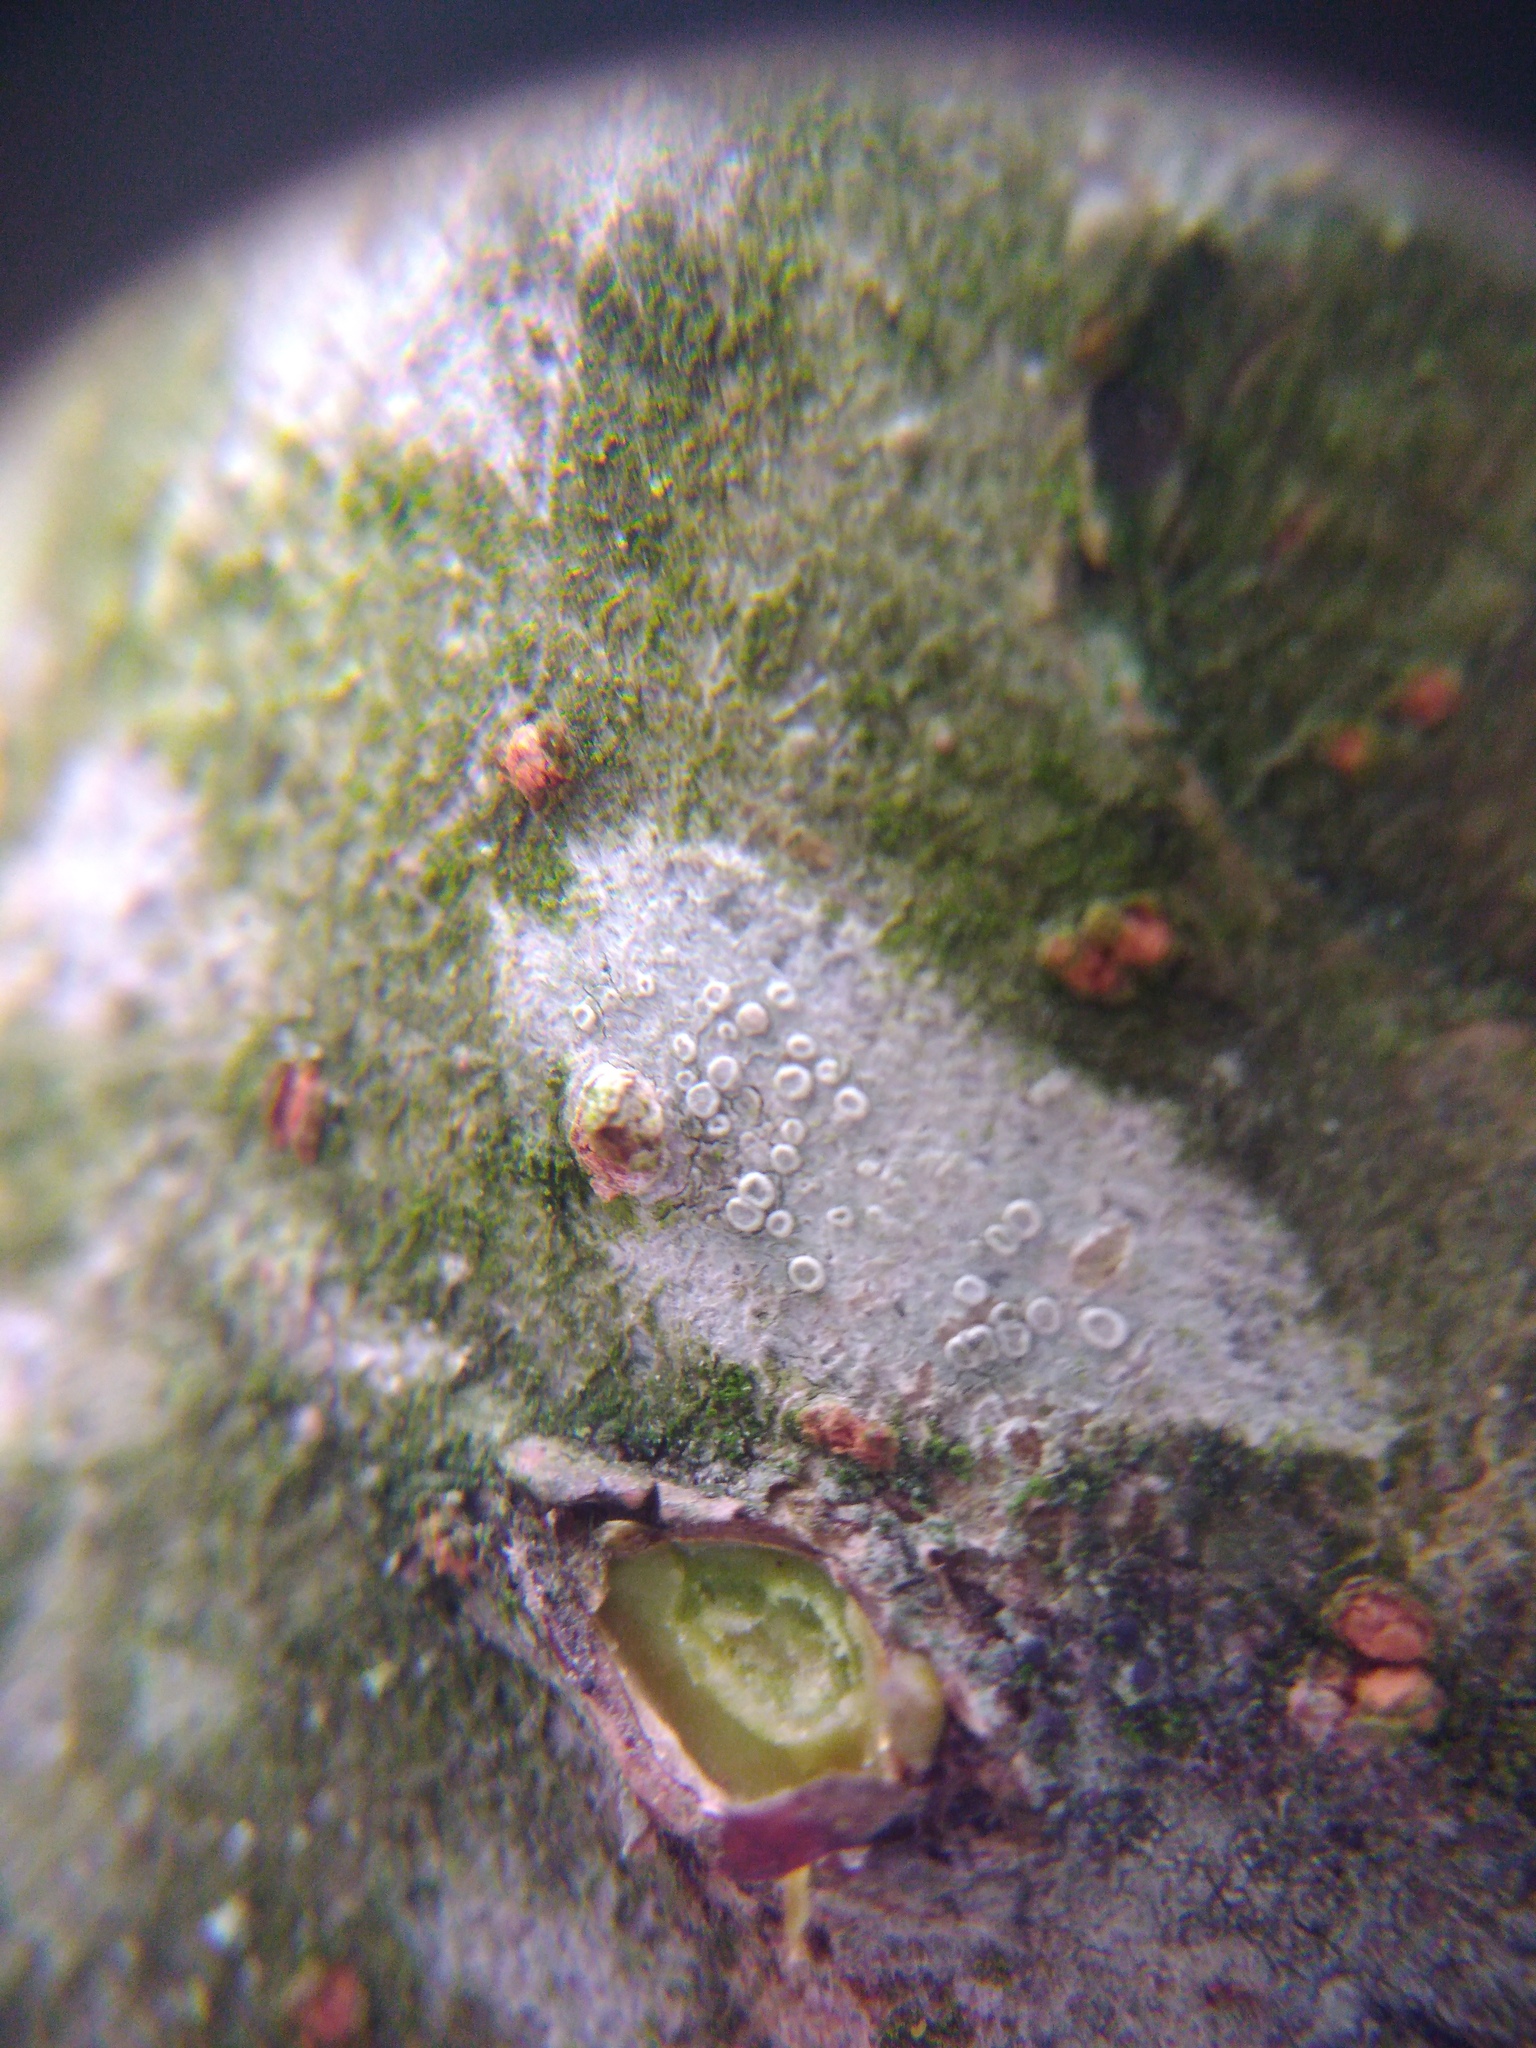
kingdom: Fungi
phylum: Ascomycota
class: Lecanoromycetes
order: Lecanorales
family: Lecanoraceae
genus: Glaucomaria
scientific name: Glaucomaria carpinea
